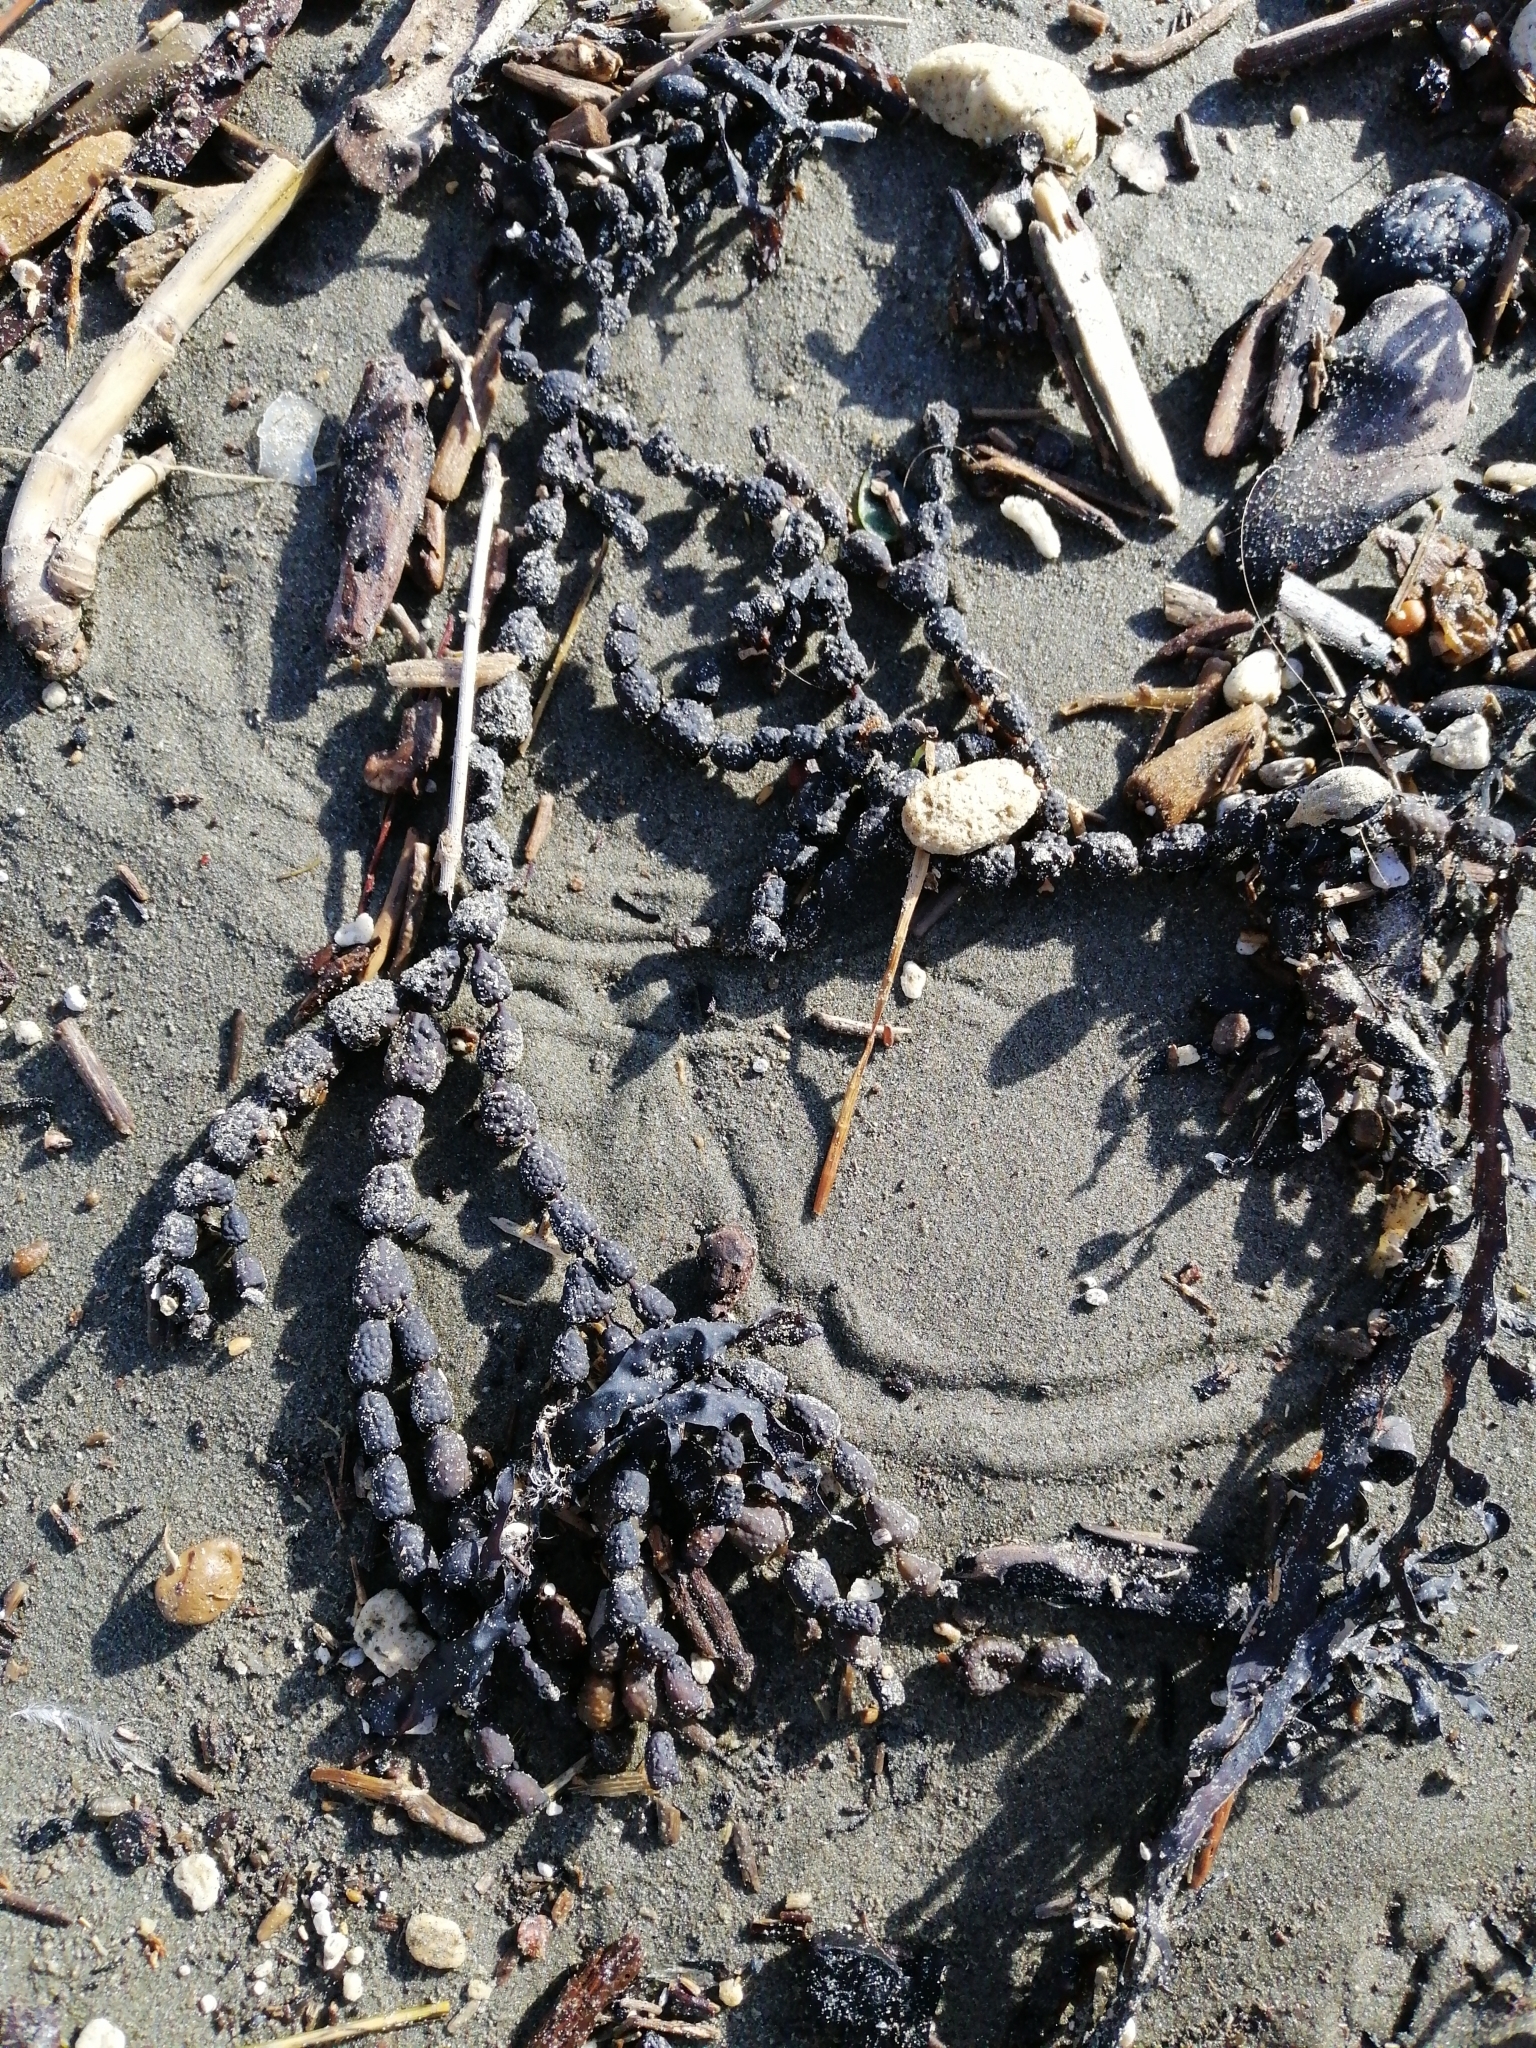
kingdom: Chromista
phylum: Ochrophyta
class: Phaeophyceae
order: Fucales
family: Hormosiraceae
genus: Hormosira
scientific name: Hormosira banksii
